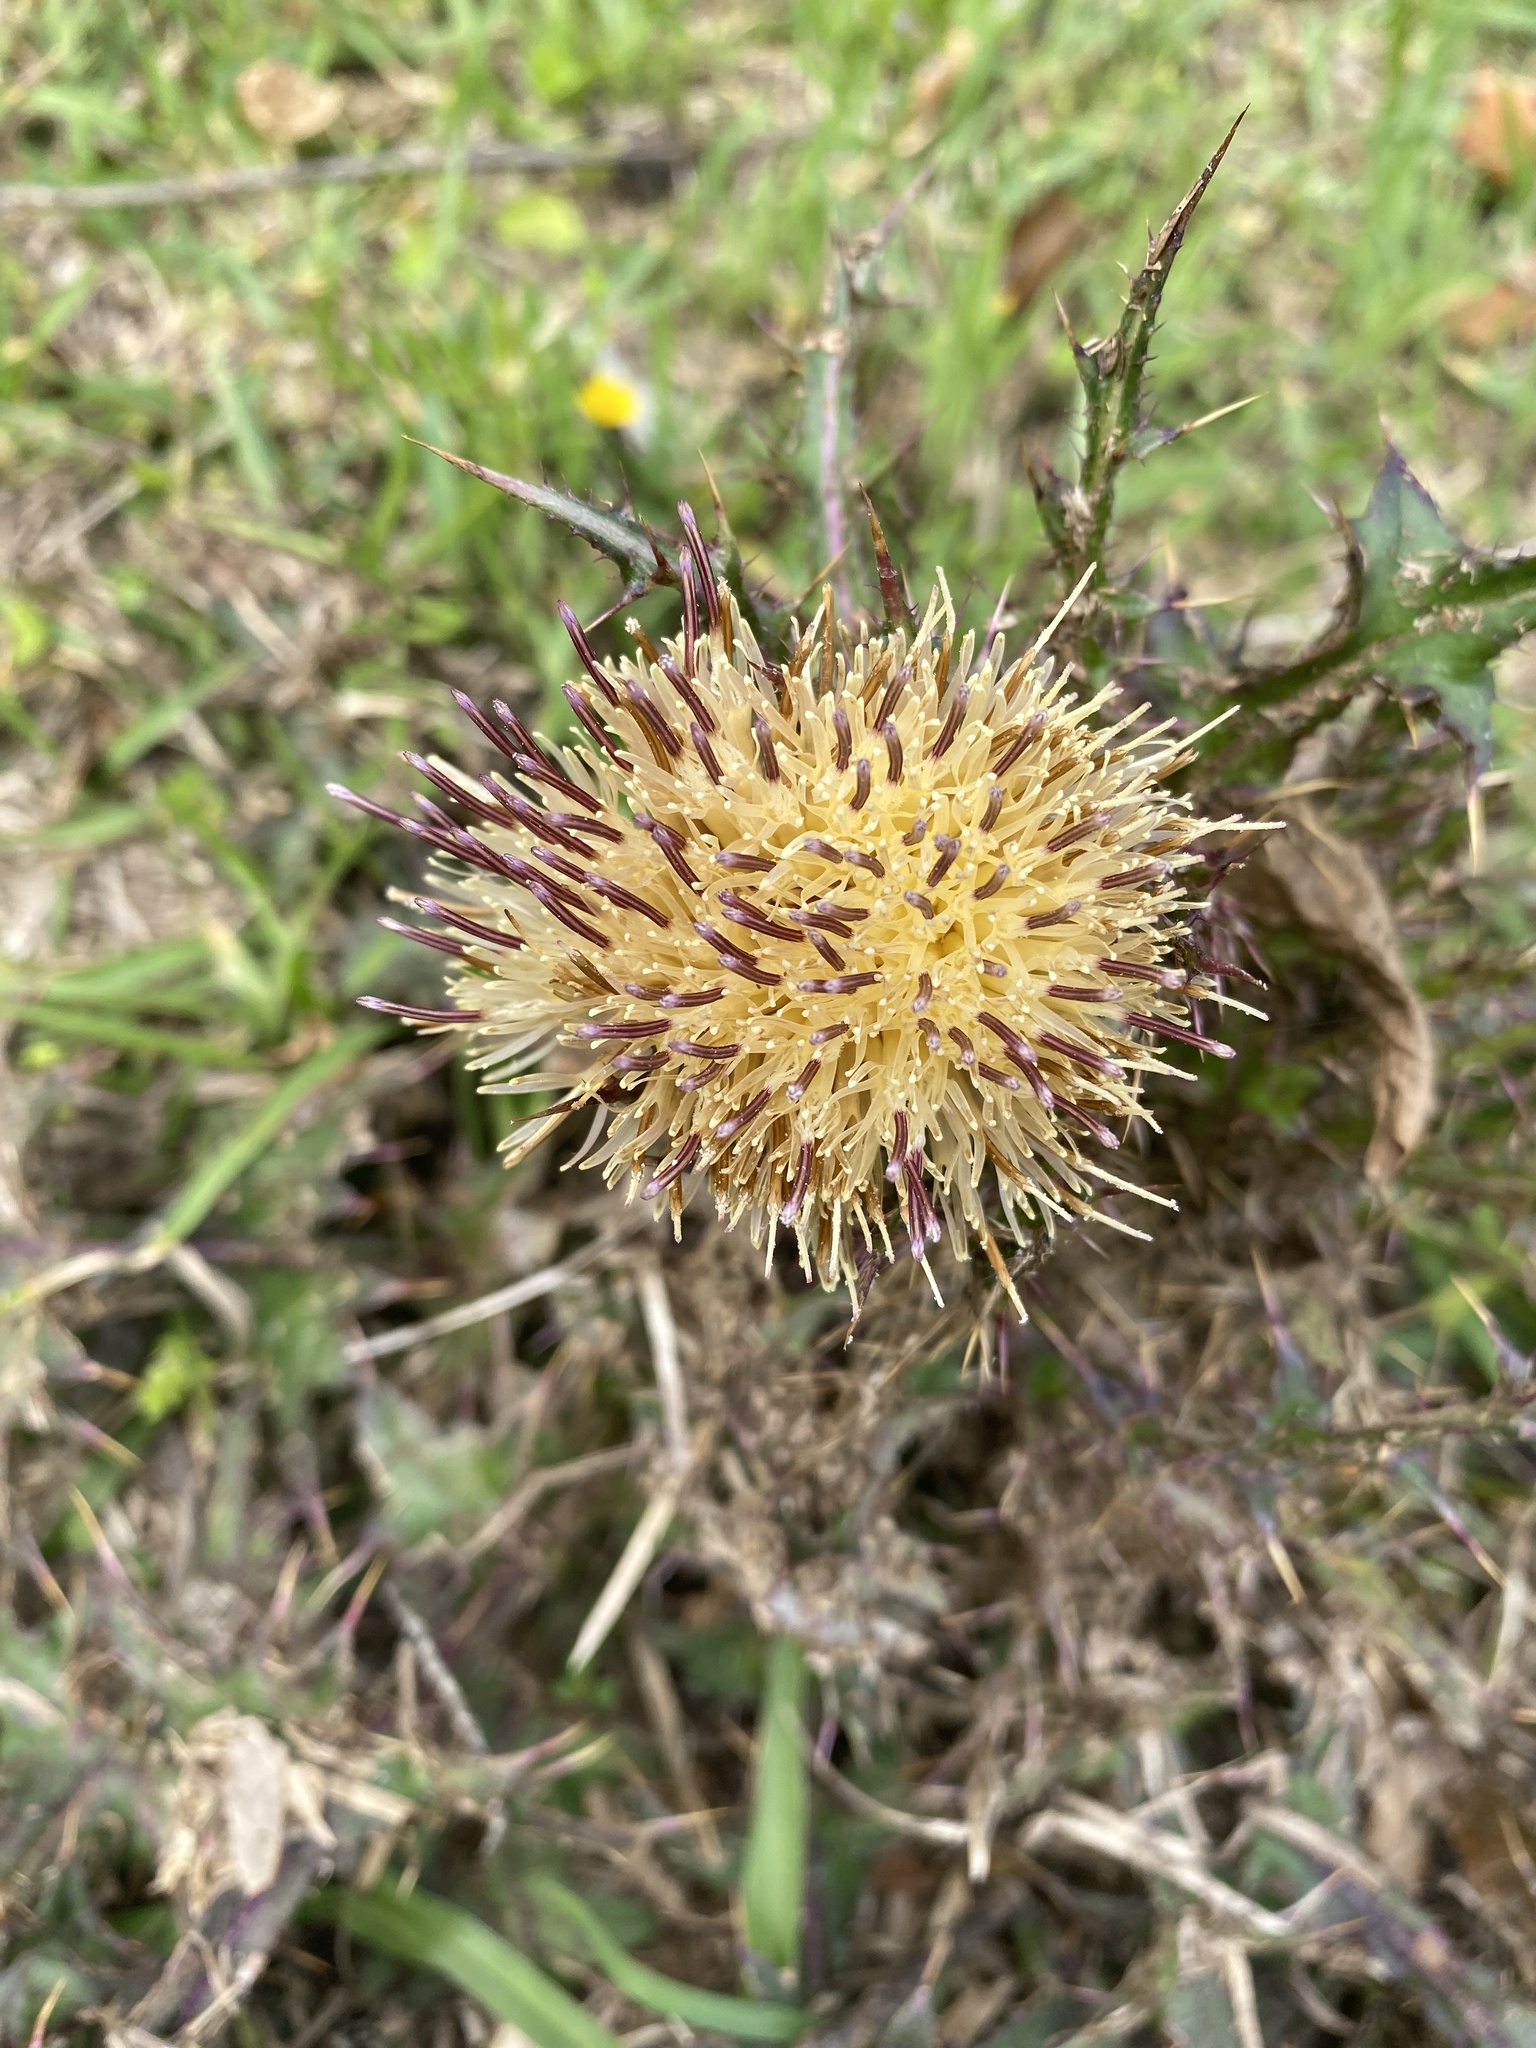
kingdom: Plantae
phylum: Tracheophyta
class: Magnoliopsida
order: Asterales
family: Asteraceae
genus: Cirsium
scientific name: Cirsium horridulum
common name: Bristly thistle
